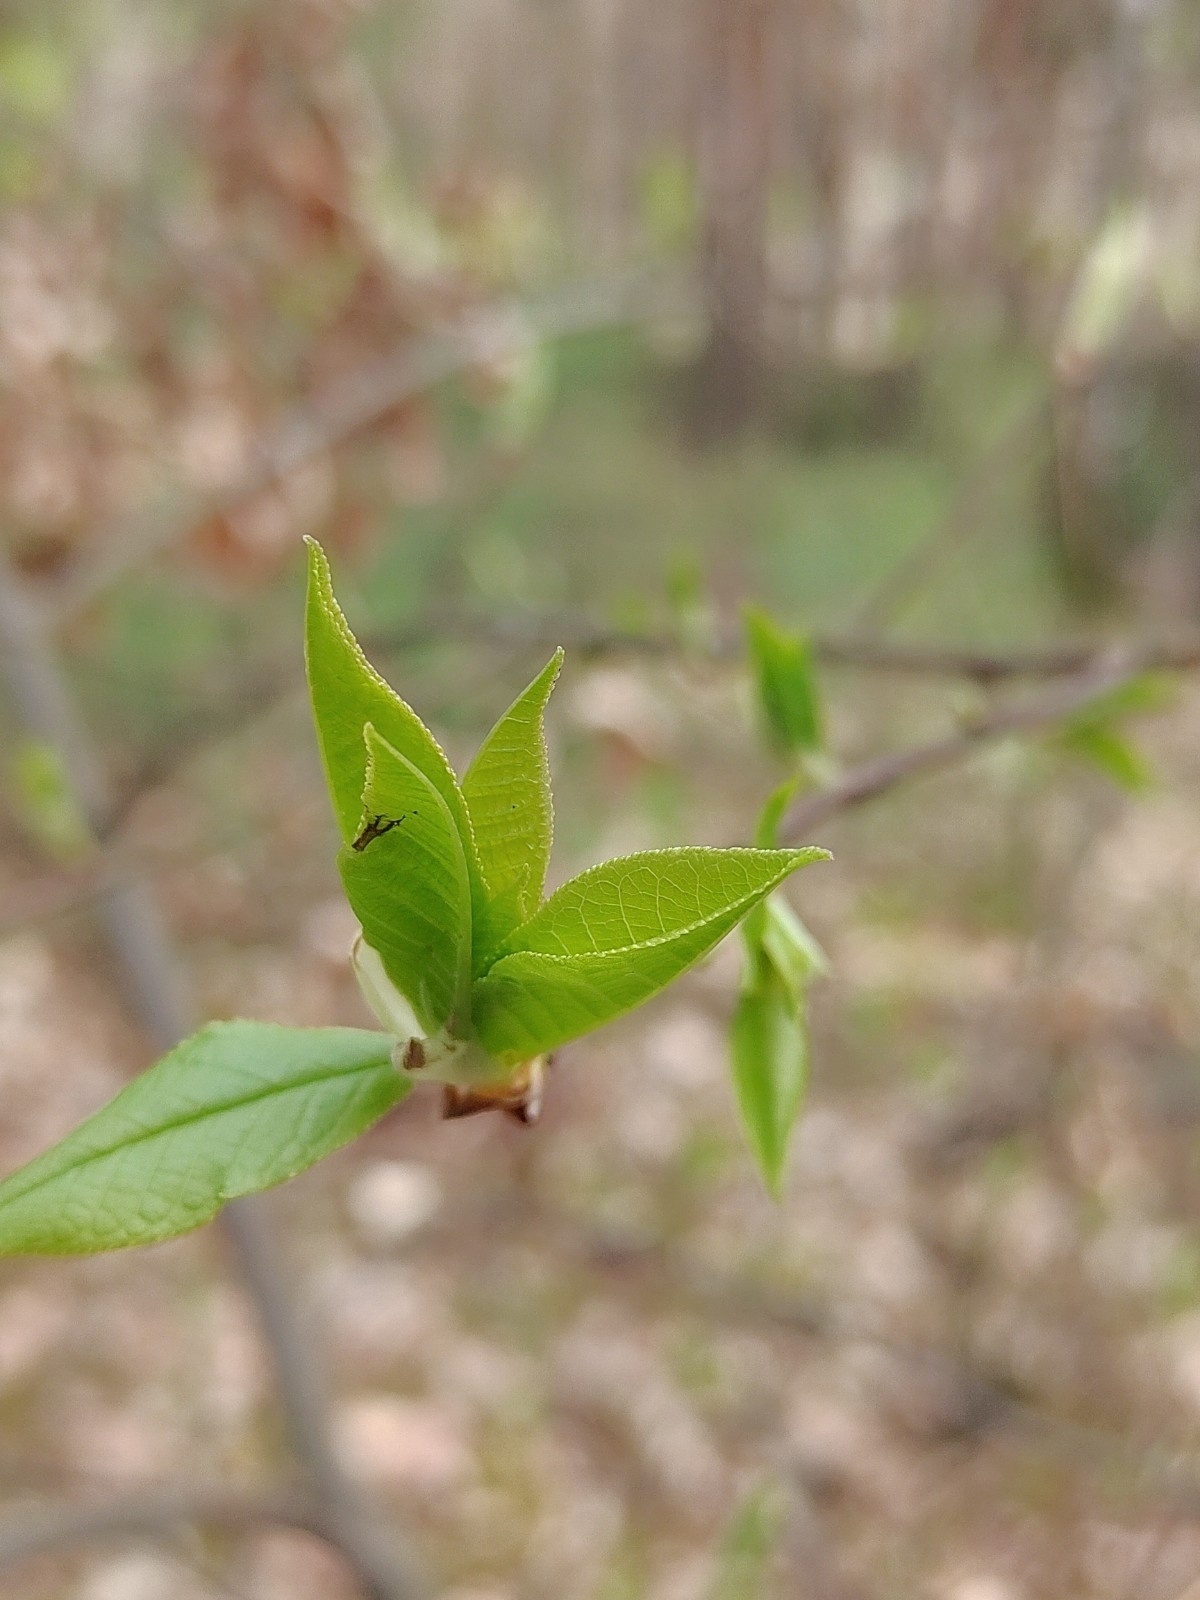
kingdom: Plantae
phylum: Tracheophyta
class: Magnoliopsida
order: Rosales
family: Rosaceae
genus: Prunus
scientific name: Prunus padus
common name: Bird cherry
